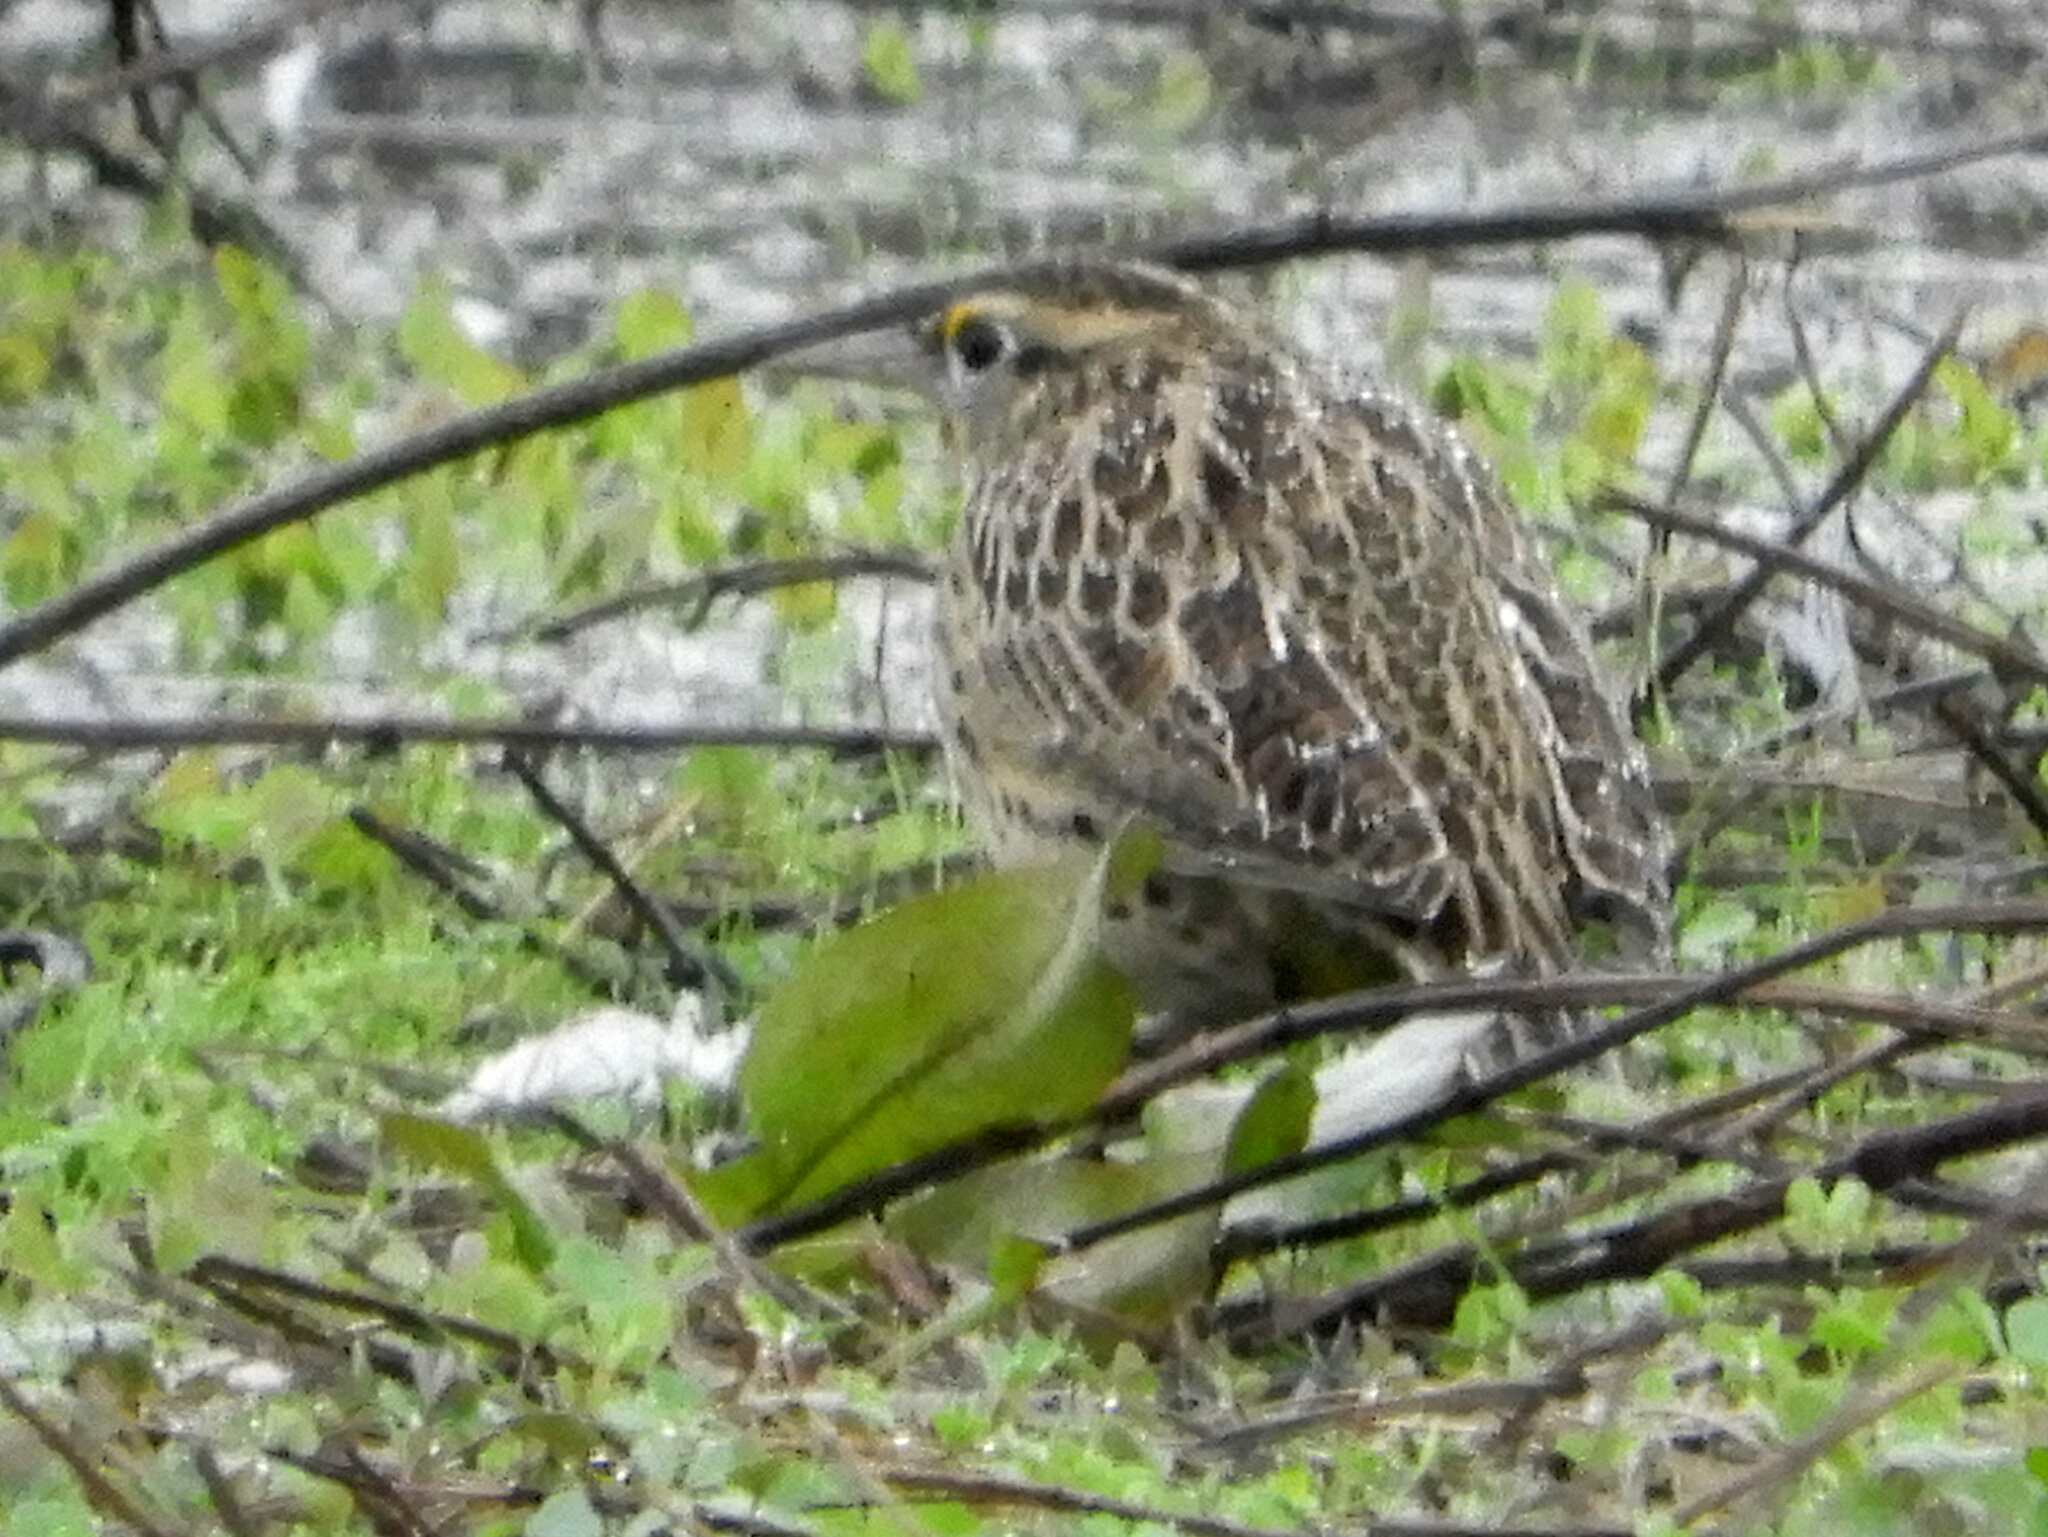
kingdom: Animalia
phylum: Chordata
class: Aves
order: Passeriformes
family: Icteridae
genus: Sturnella
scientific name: Sturnella neglecta
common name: Western meadowlark
